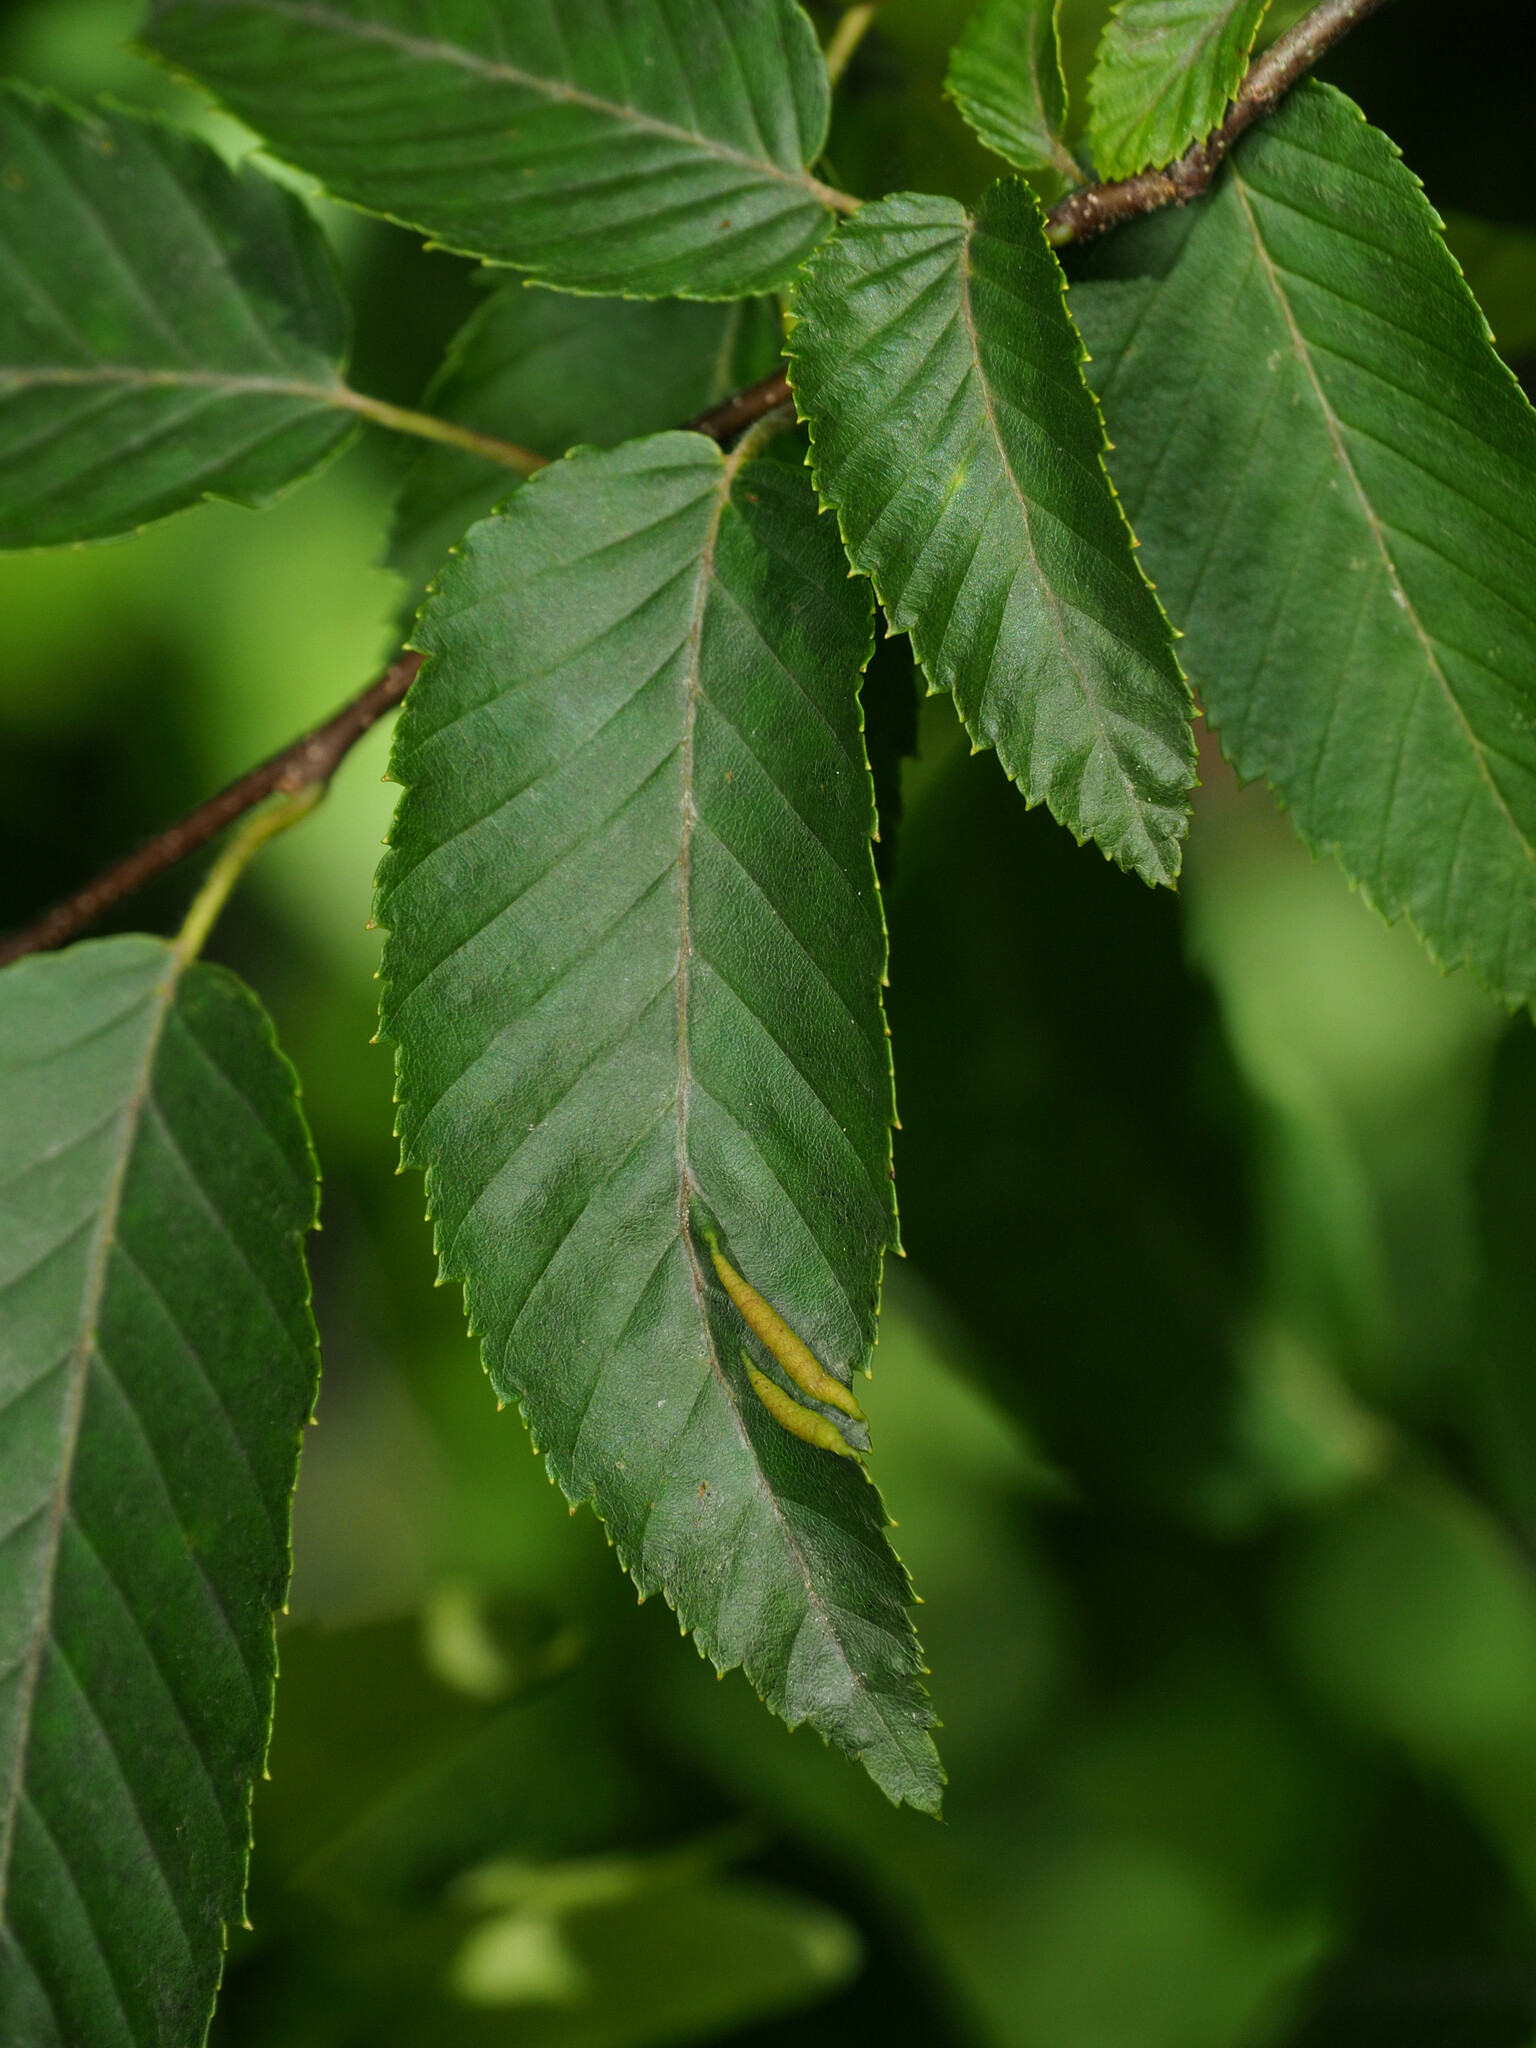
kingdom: Animalia
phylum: Arthropoda
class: Insecta
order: Diptera
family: Cecidomyiidae
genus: Dasineura
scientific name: Dasineura pudibunda
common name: Hornbeam leaf gall midge
